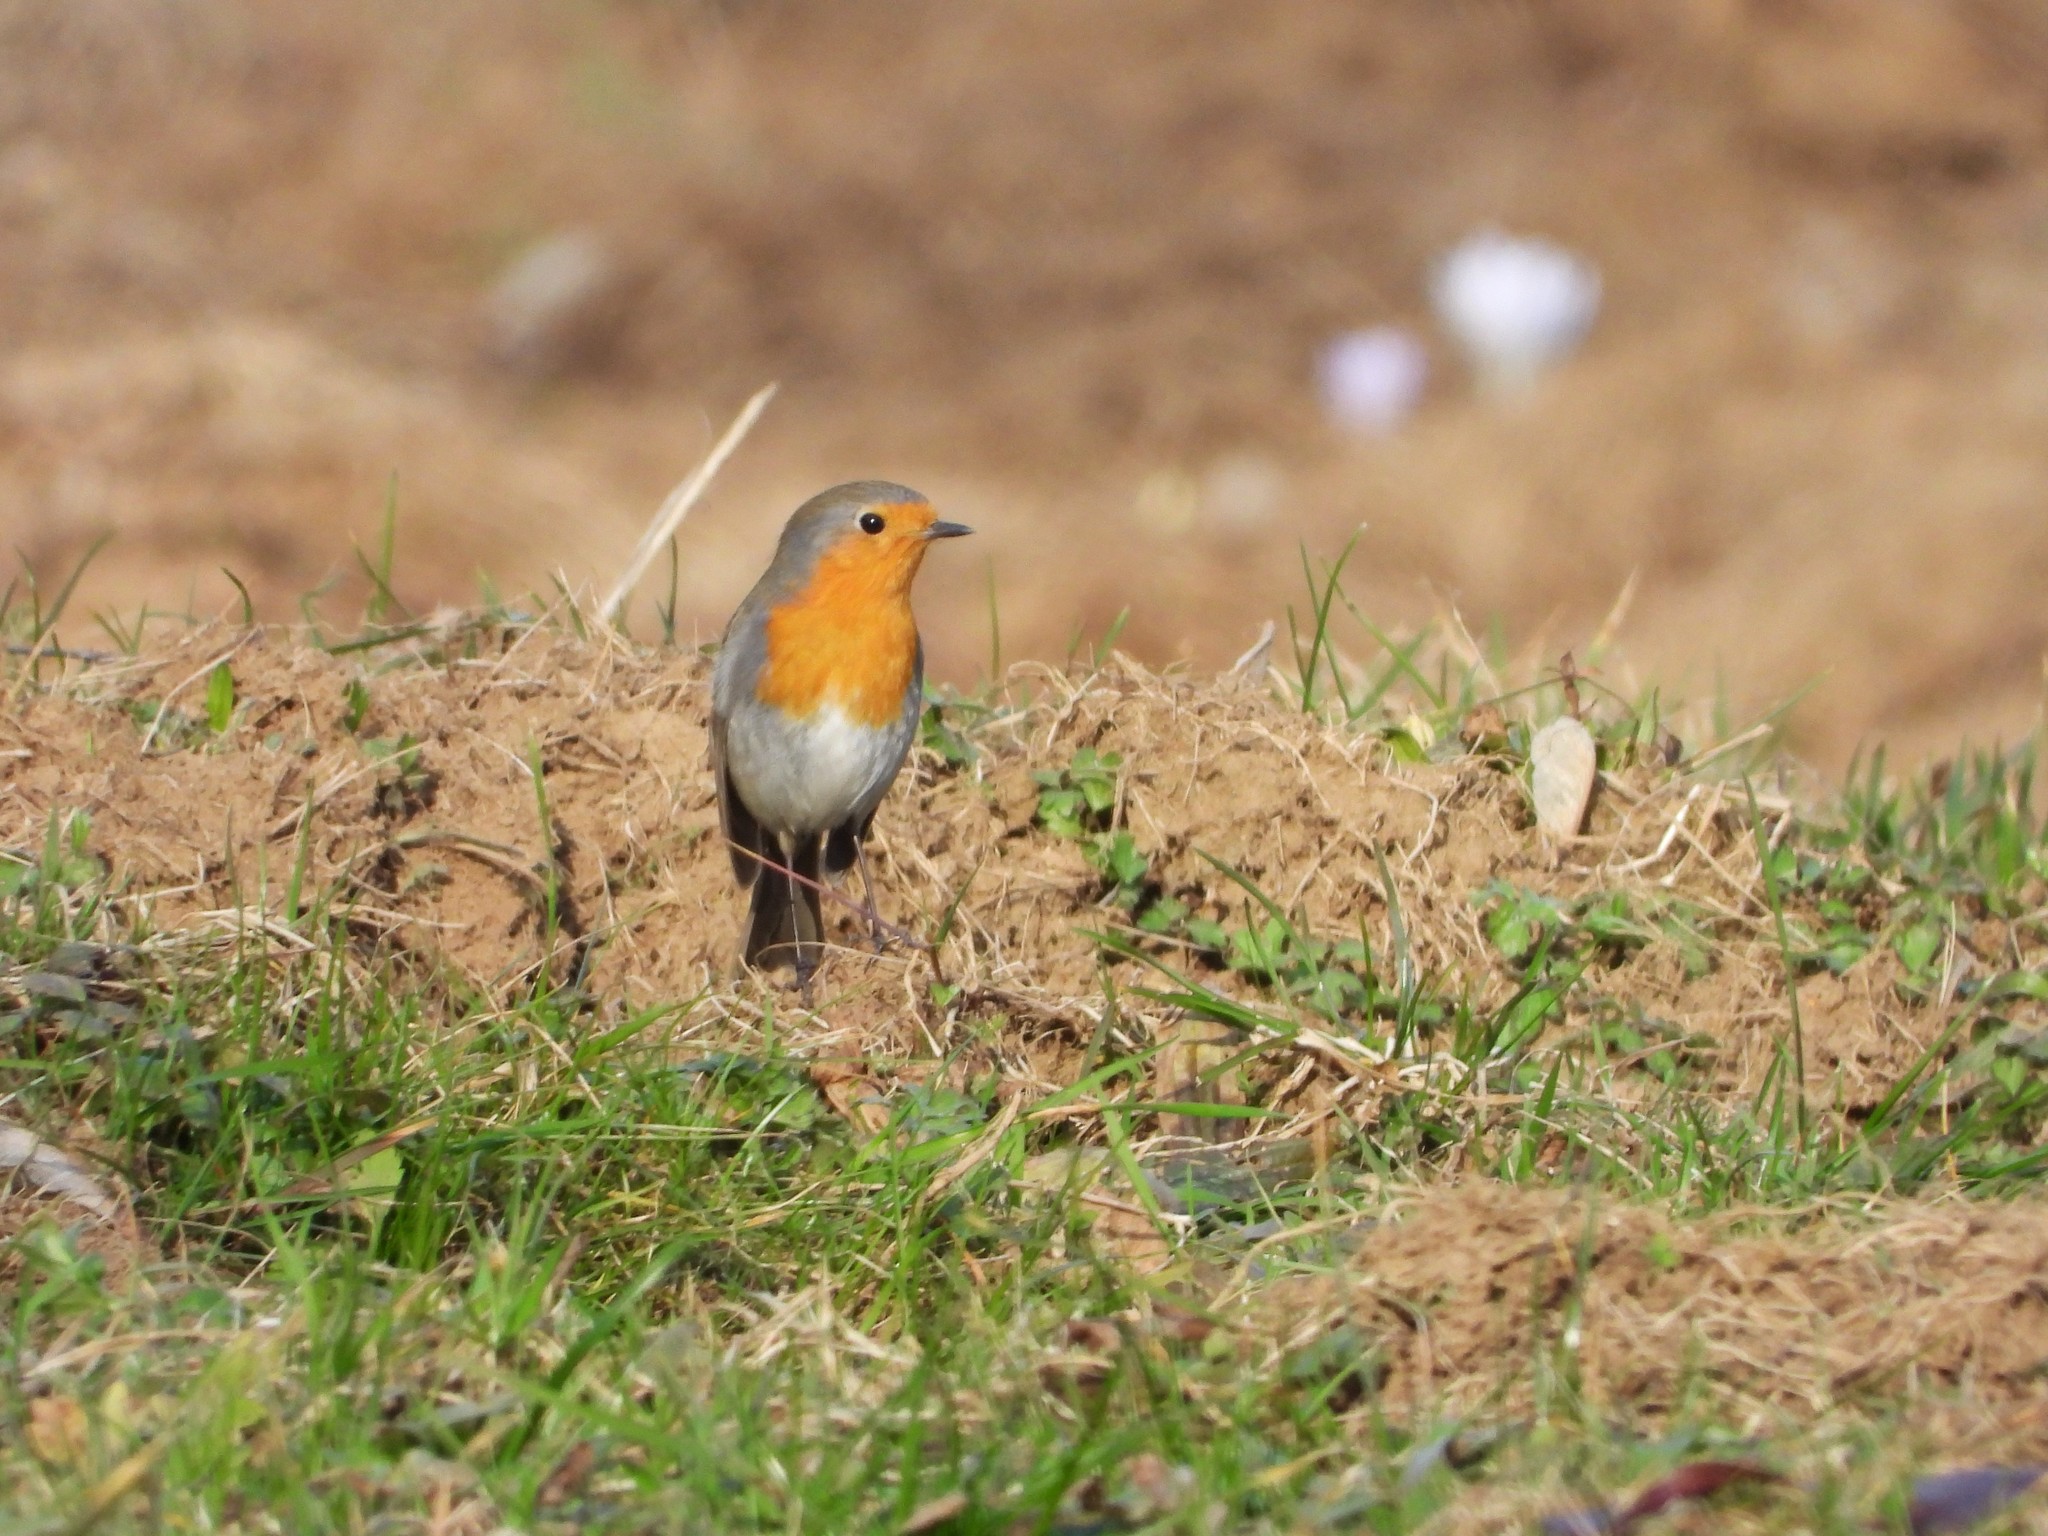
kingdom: Animalia
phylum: Chordata
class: Aves
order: Passeriformes
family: Muscicapidae
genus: Erithacus
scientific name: Erithacus rubecula
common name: European robin
